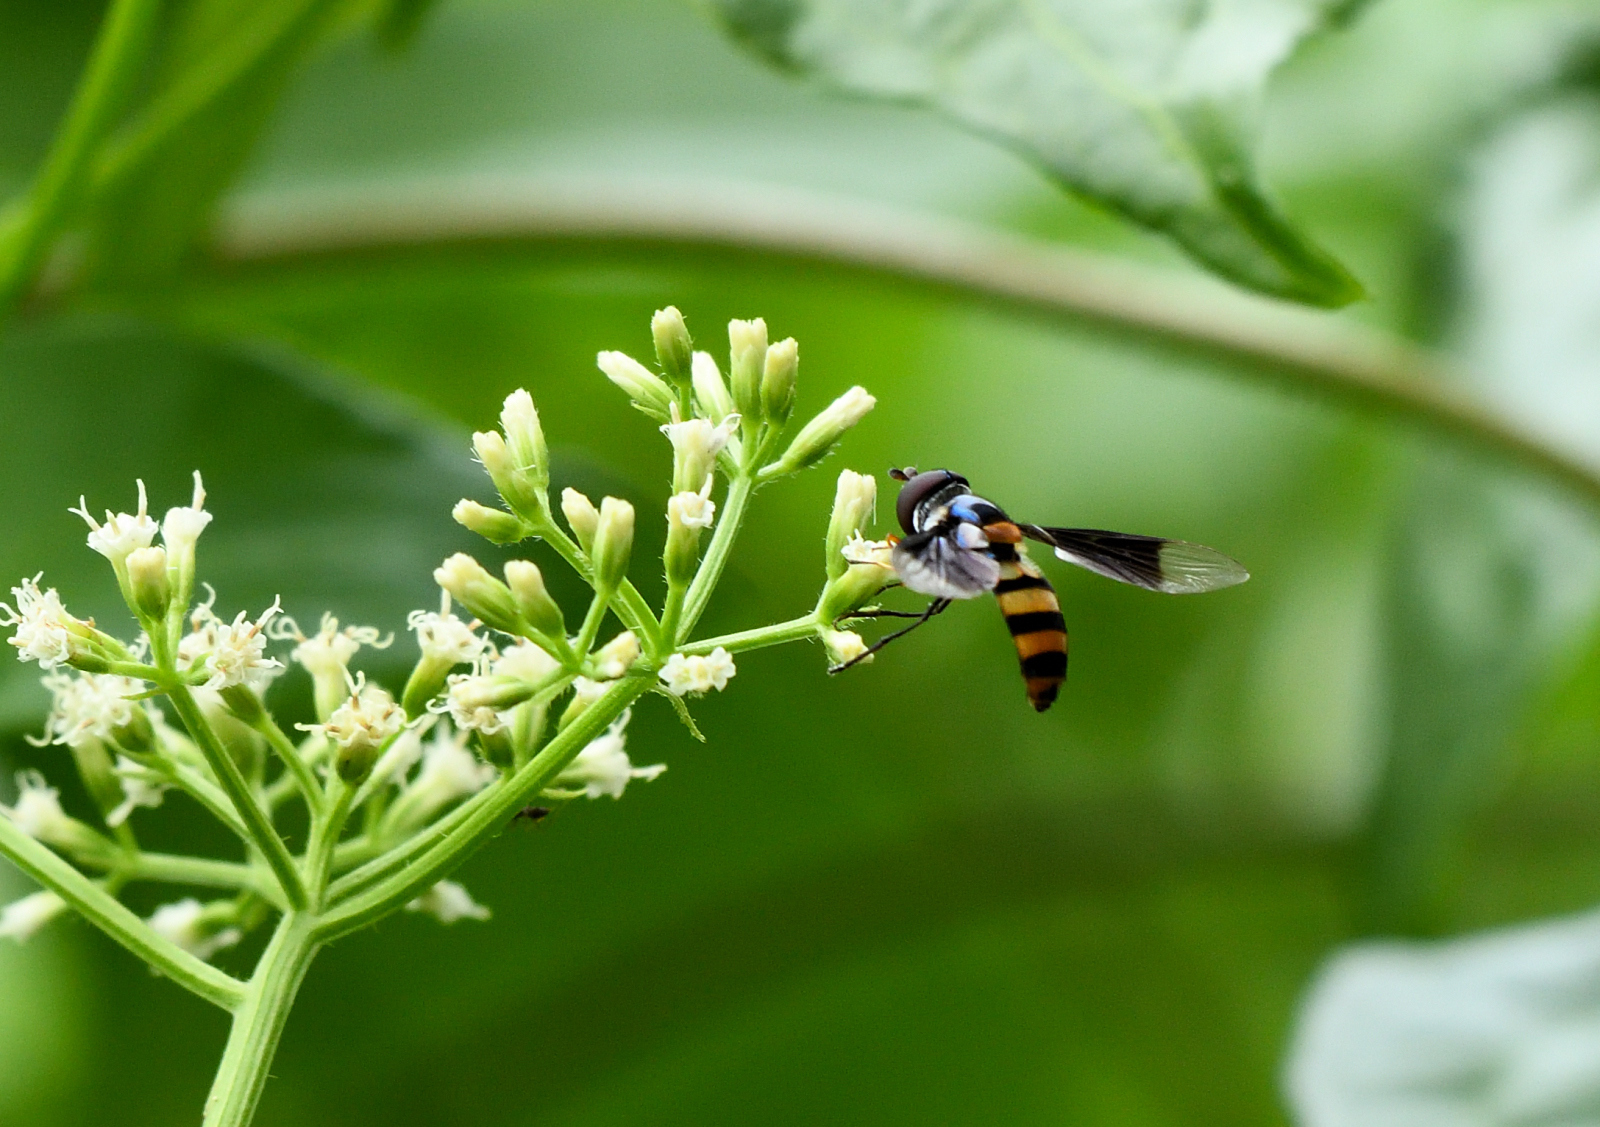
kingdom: Animalia
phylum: Arthropoda
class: Insecta
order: Diptera
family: Syrphidae
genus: Dideopsis
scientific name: Dideopsis aegrota
